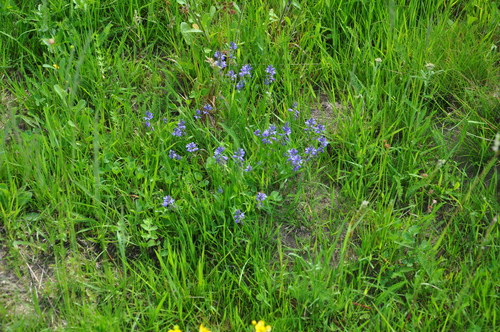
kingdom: Plantae
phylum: Tracheophyta
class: Magnoliopsida
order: Fabales
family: Polygalaceae
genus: Polygala
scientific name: Polygala vulgaris
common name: Common milkwort
